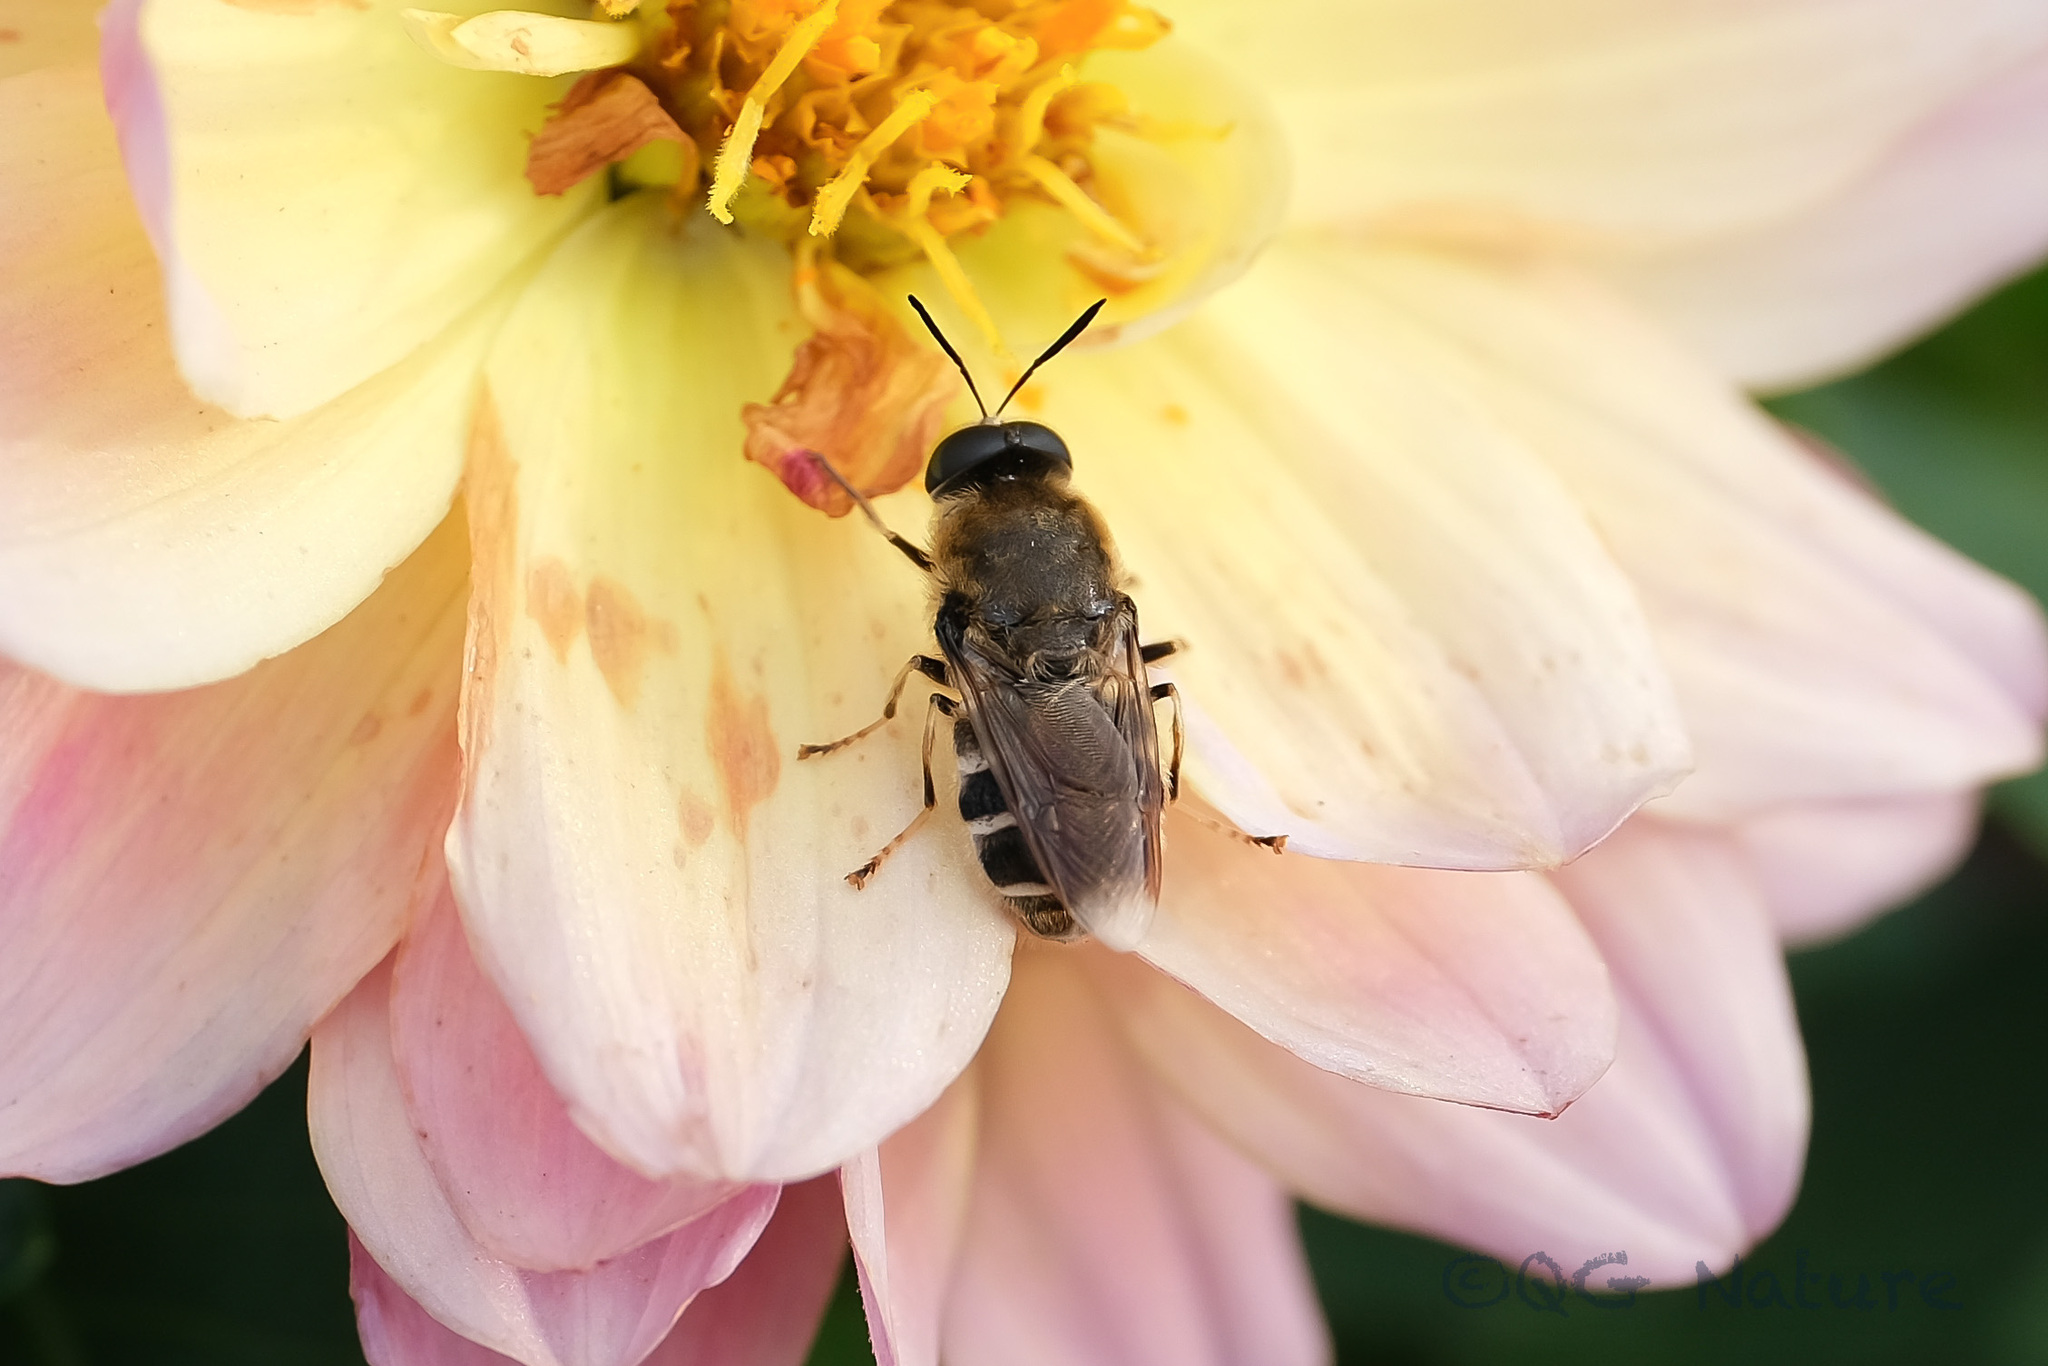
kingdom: Animalia
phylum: Arthropoda
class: Insecta
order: Diptera
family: Stratiomyidae
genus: Stratiomys
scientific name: Stratiomys longicornis
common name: Long-horned general
